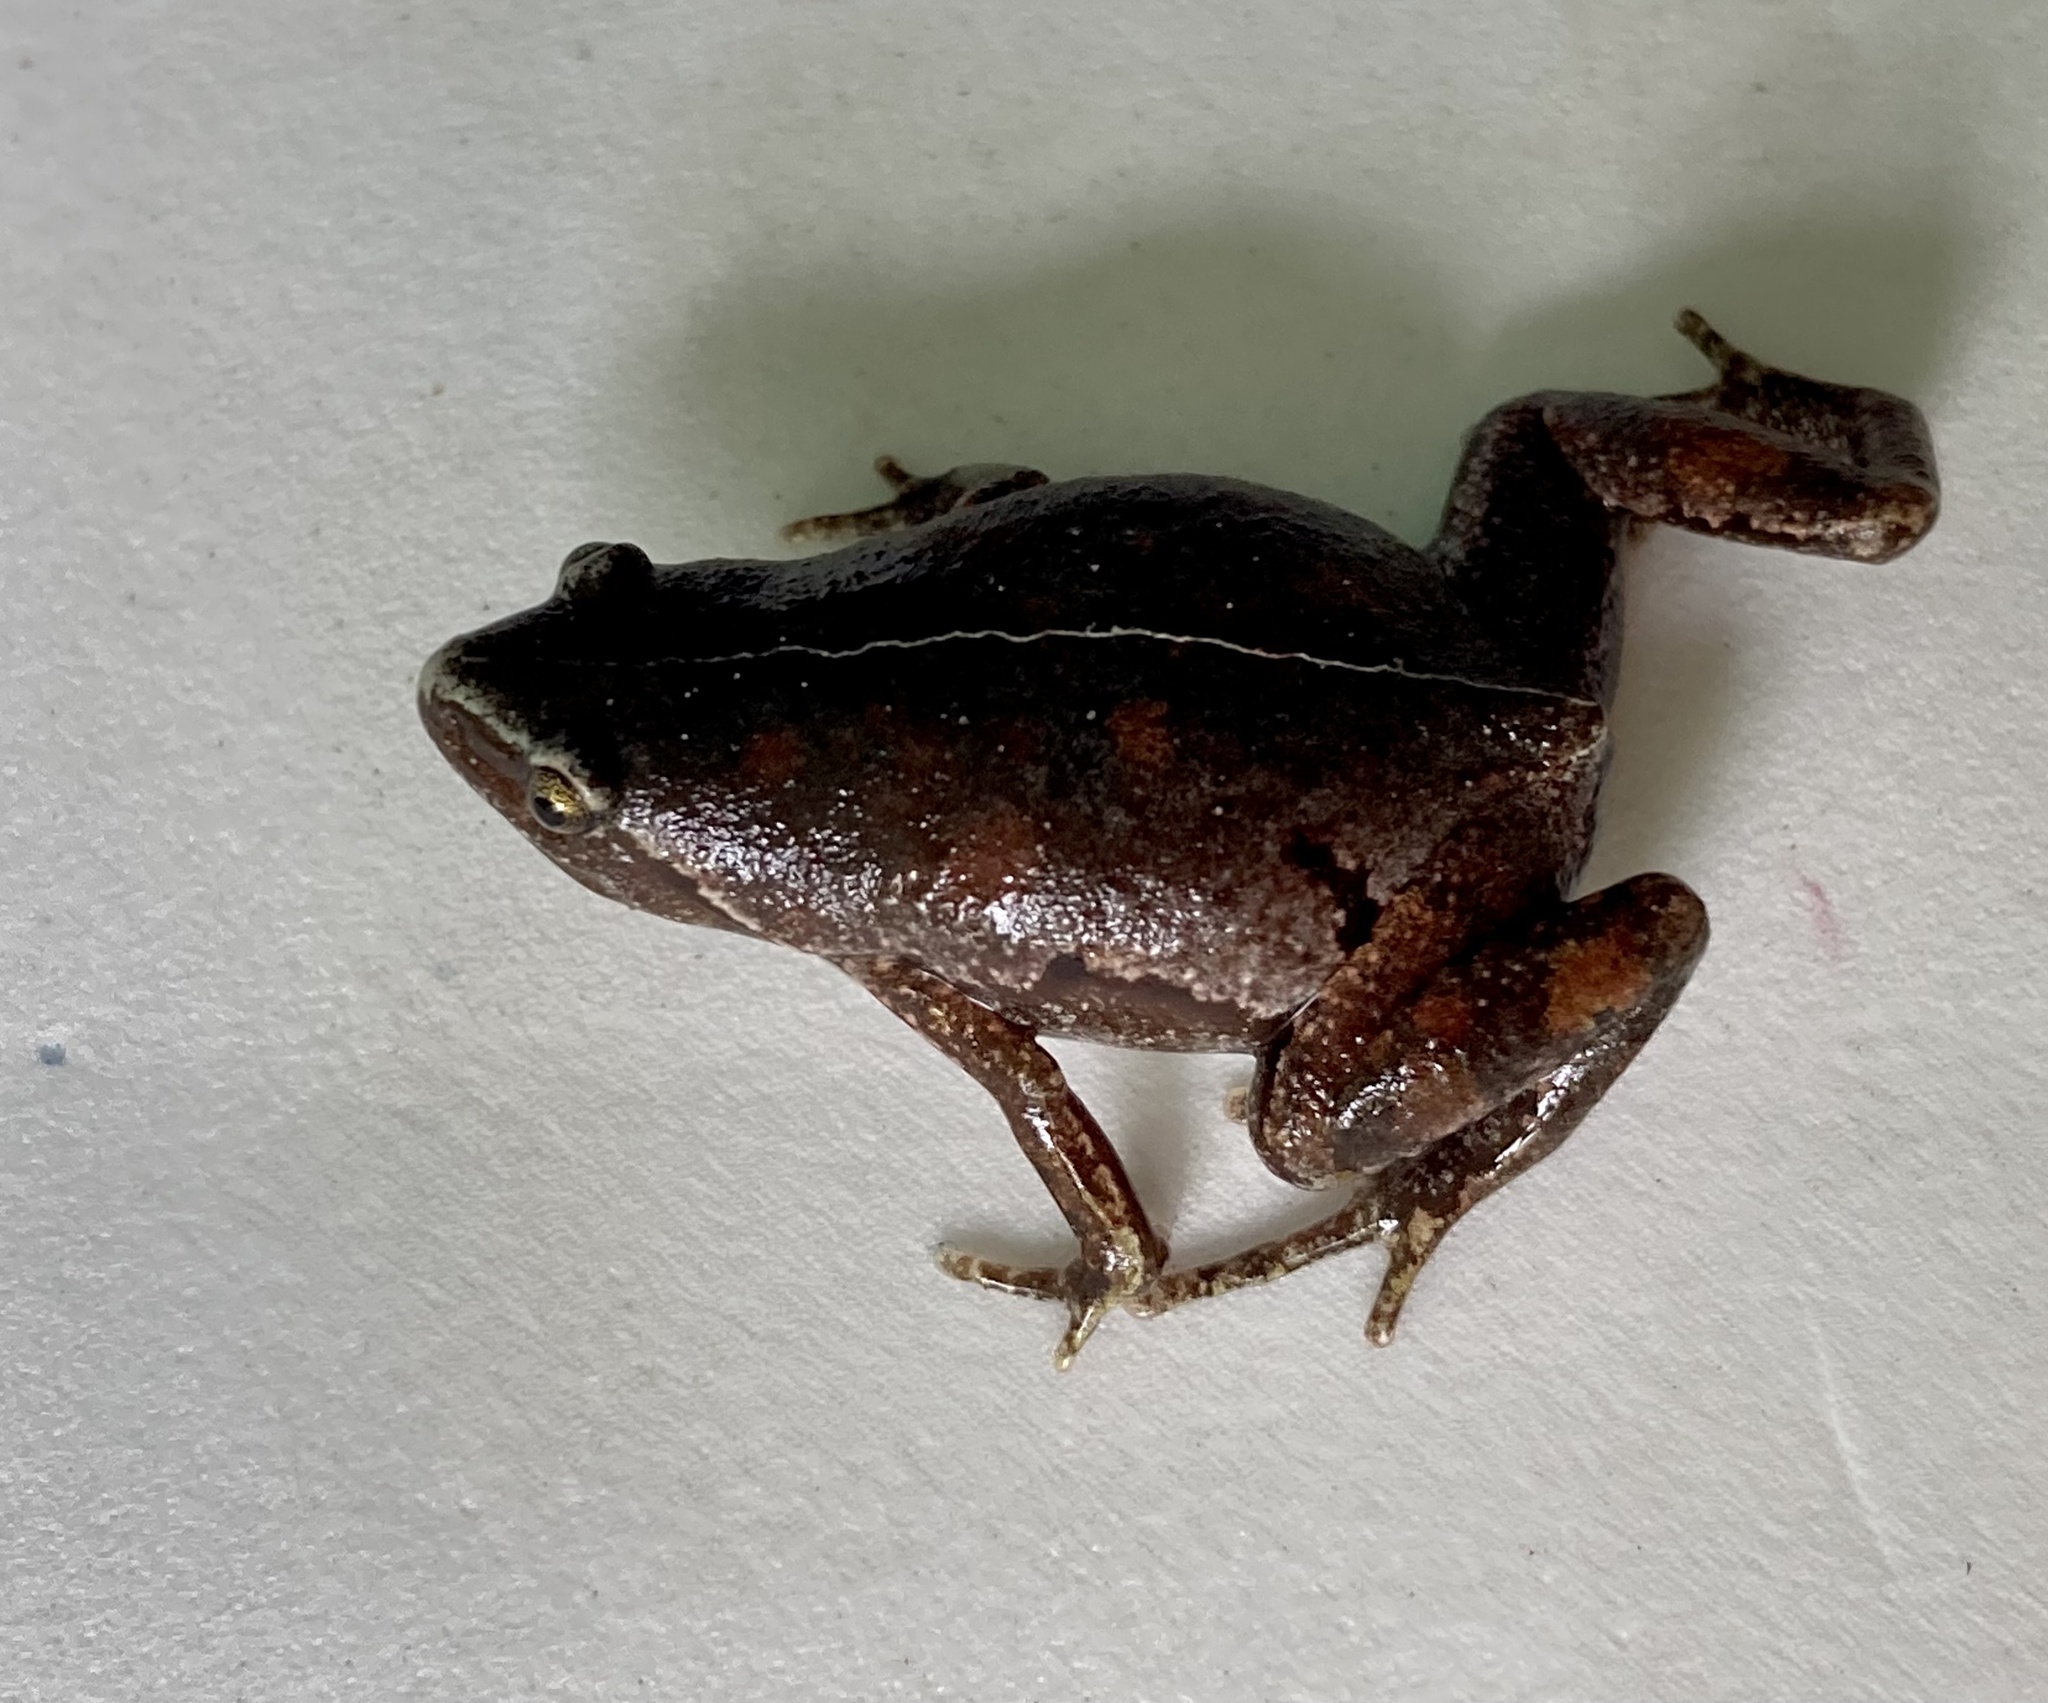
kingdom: Animalia
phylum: Chordata
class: Amphibia
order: Anura
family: Microhylidae
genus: Chiasmocleis
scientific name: Chiasmocleis bassleri
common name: Bassler's humming frog
